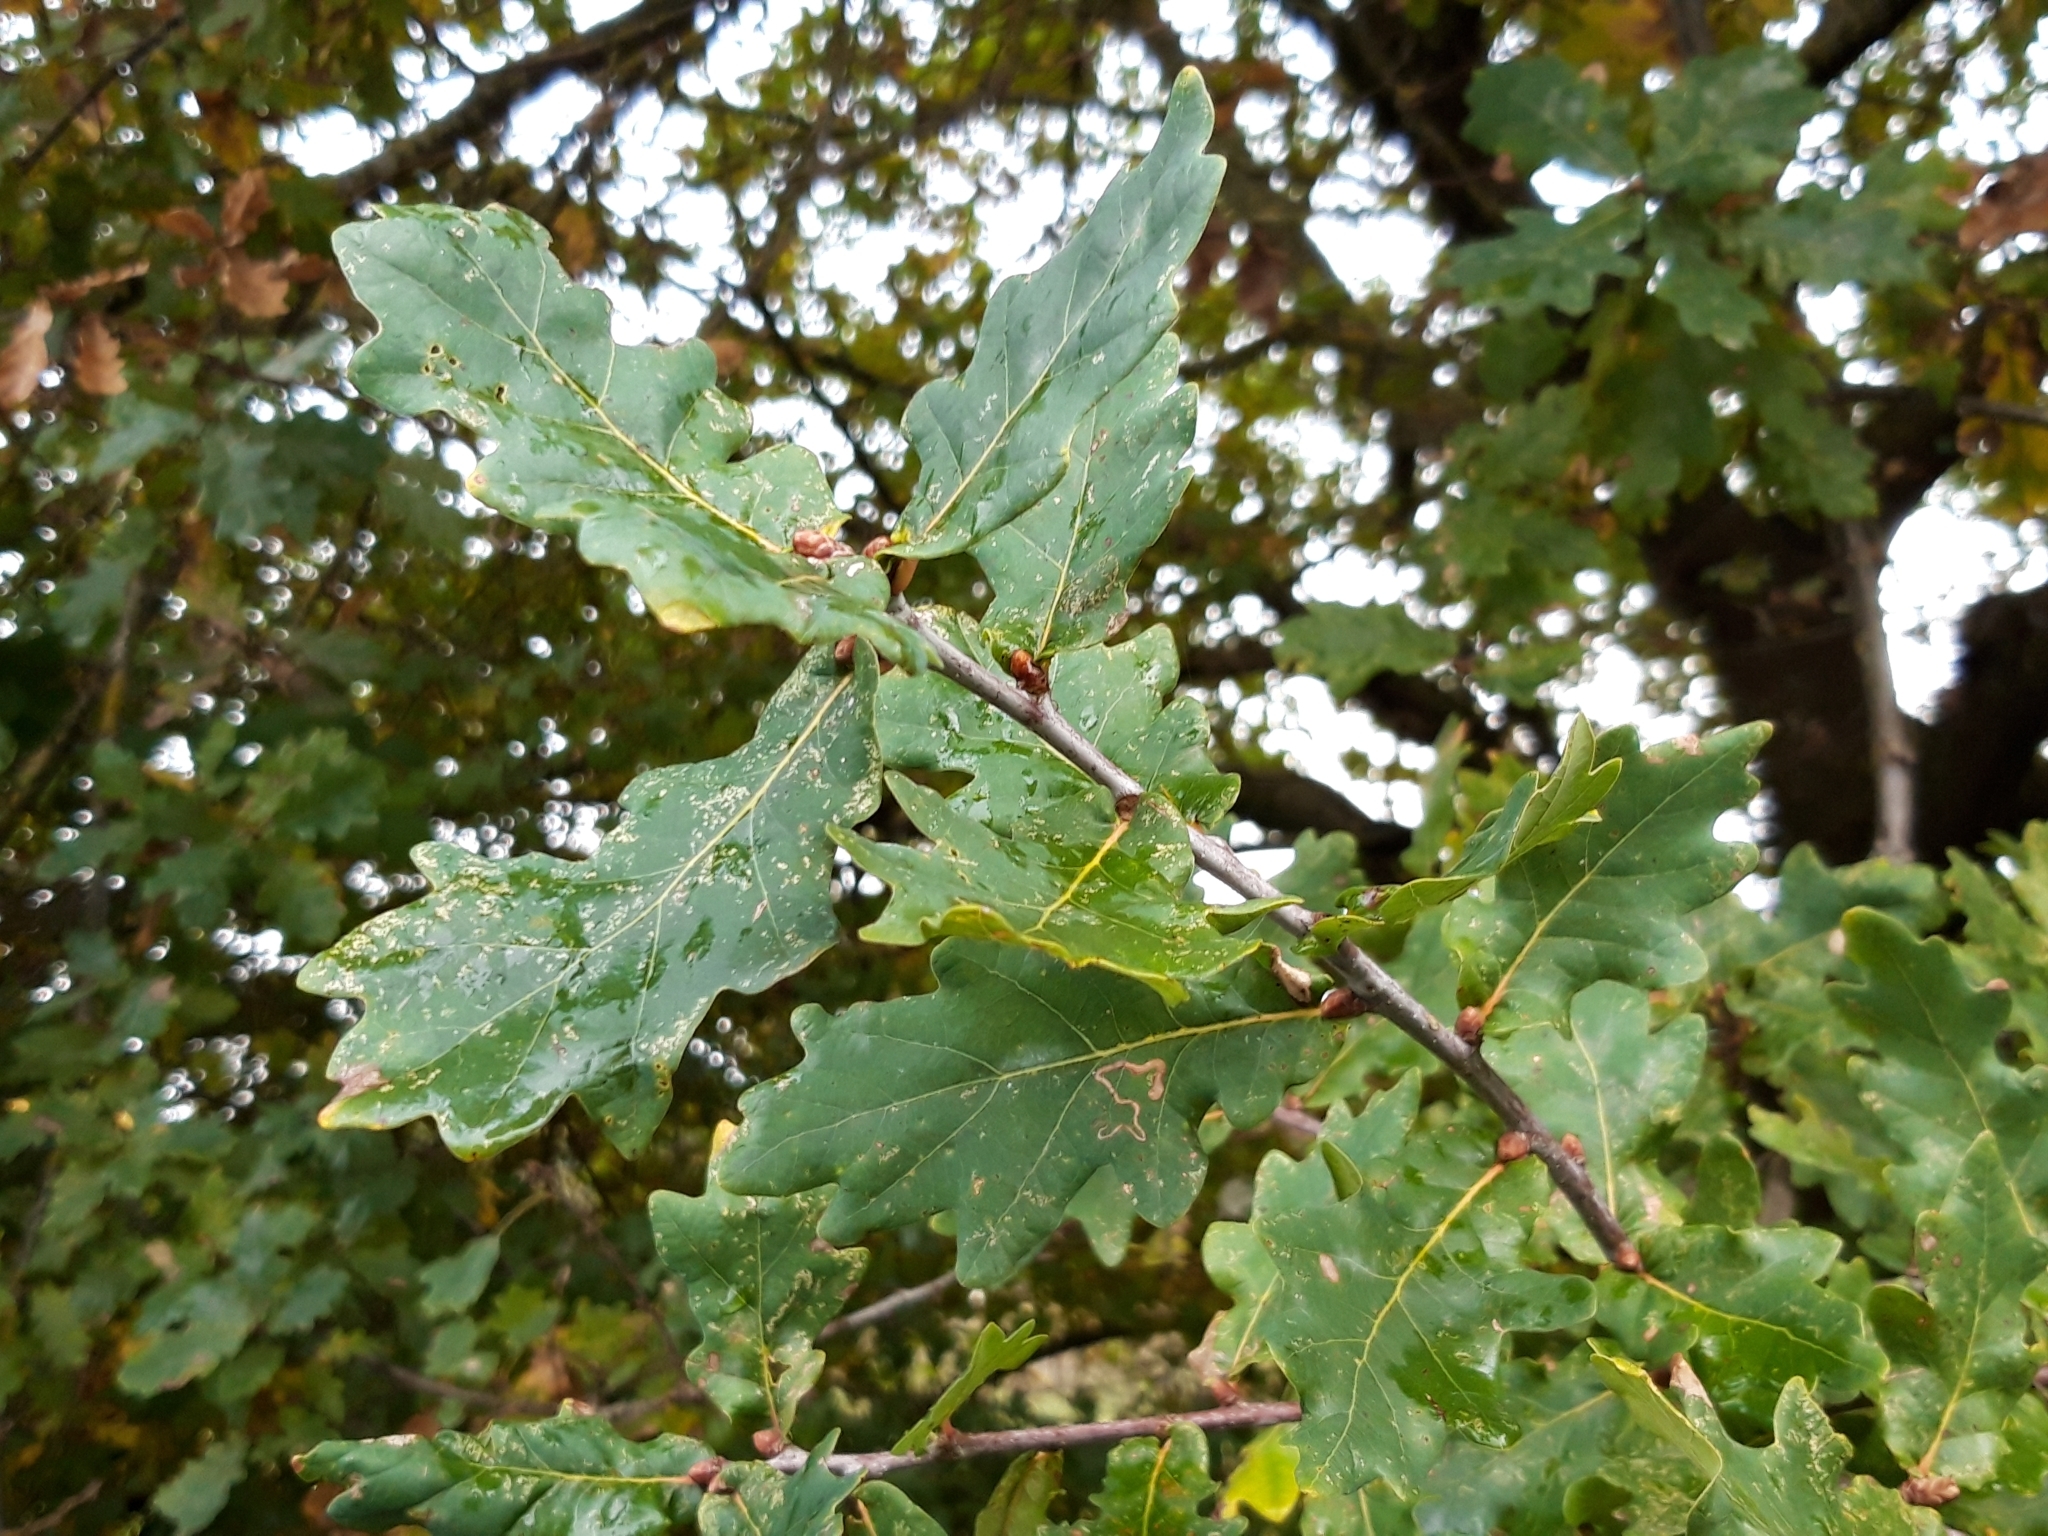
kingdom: Plantae
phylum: Tracheophyta
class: Magnoliopsida
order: Fagales
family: Fagaceae
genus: Quercus
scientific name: Quercus robur
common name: Pedunculate oak
